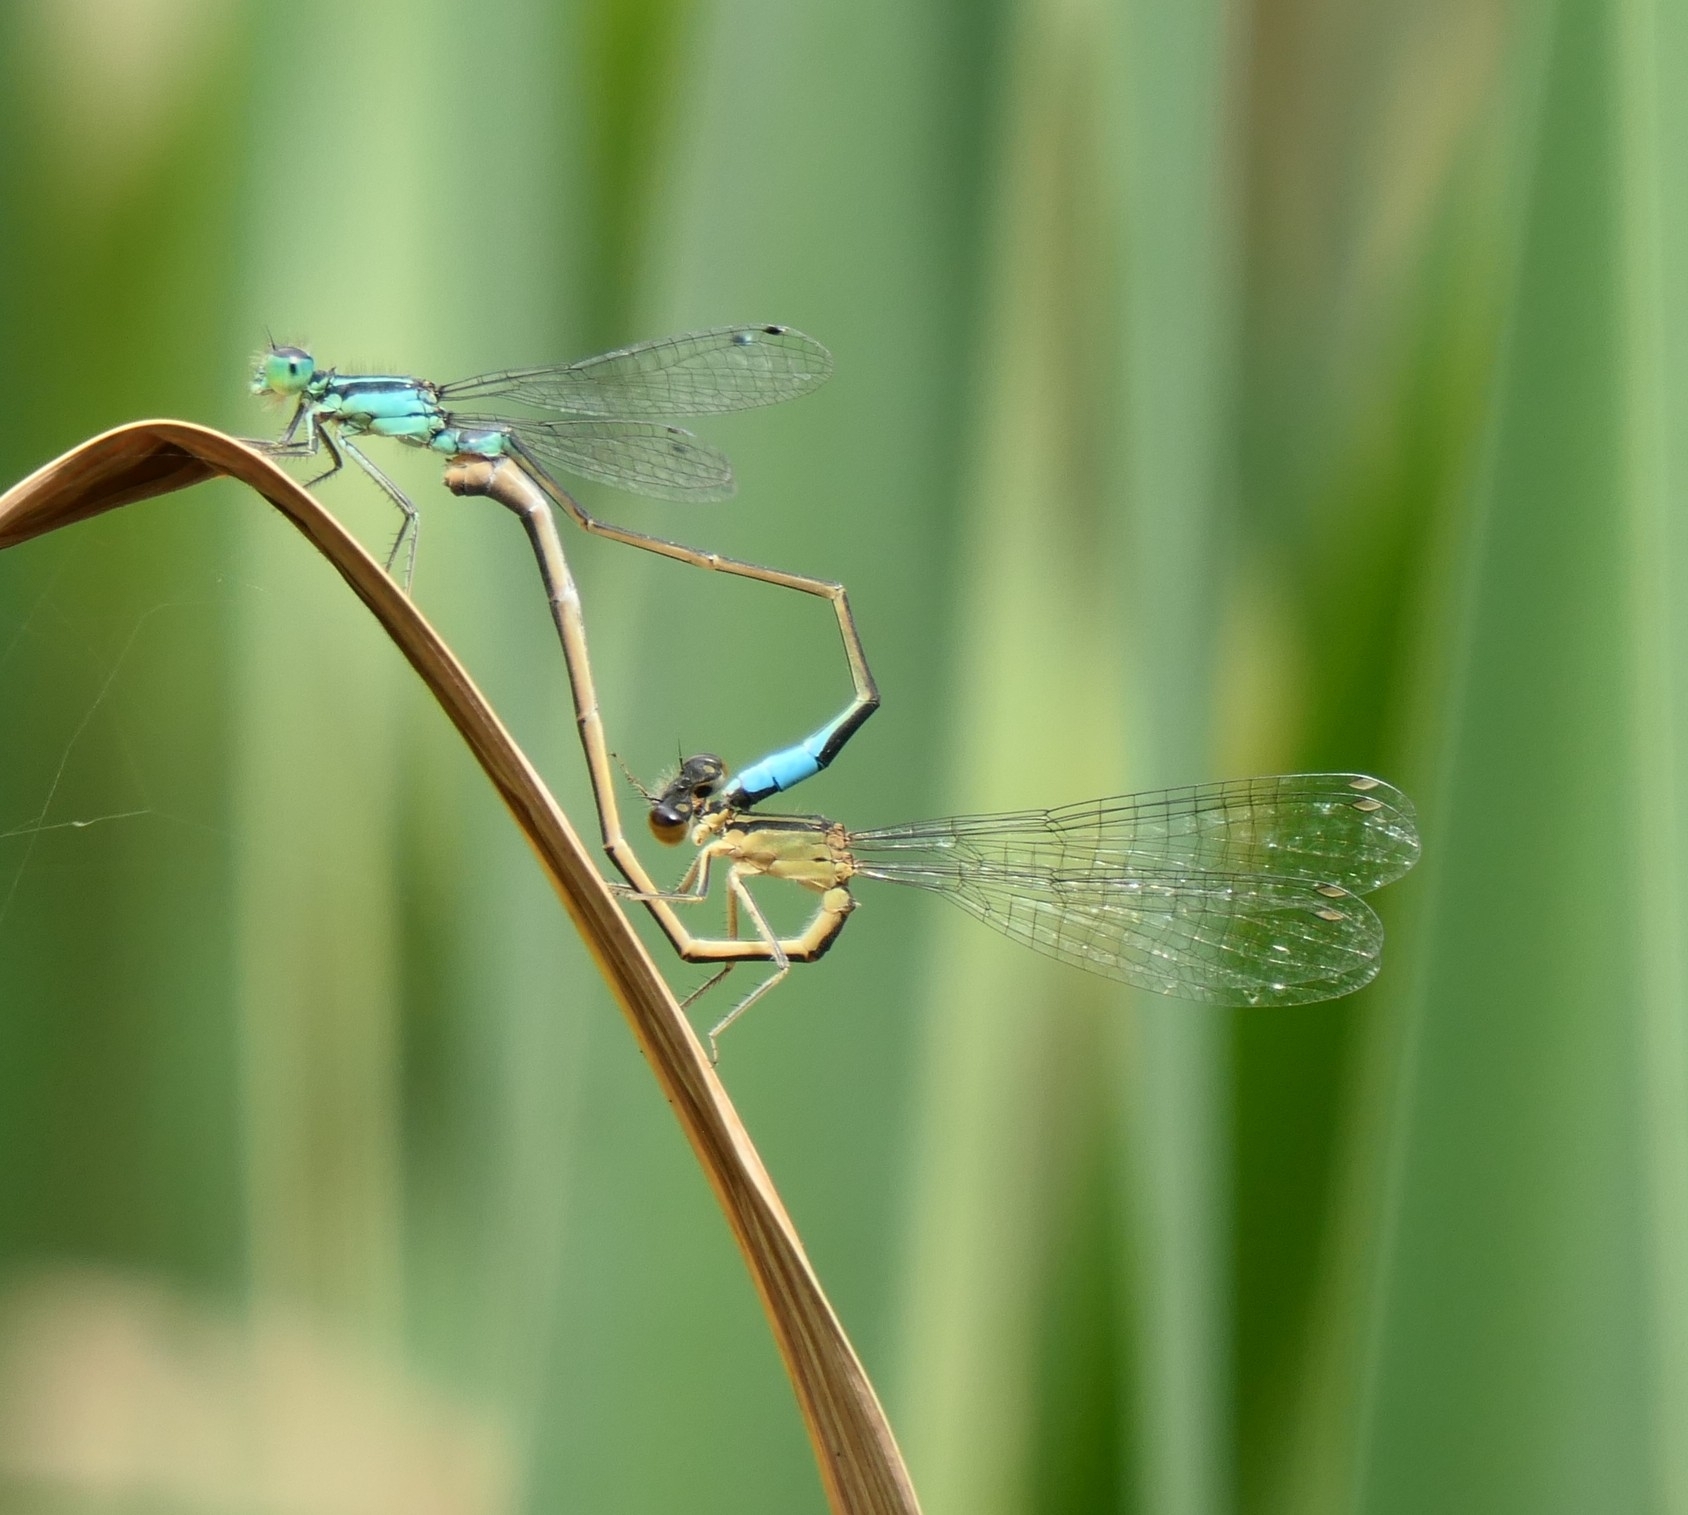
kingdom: Animalia
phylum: Arthropoda
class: Insecta
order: Odonata
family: Coenagrionidae
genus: Ischnura
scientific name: Ischnura elegans
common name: Blue-tailed damselfly
